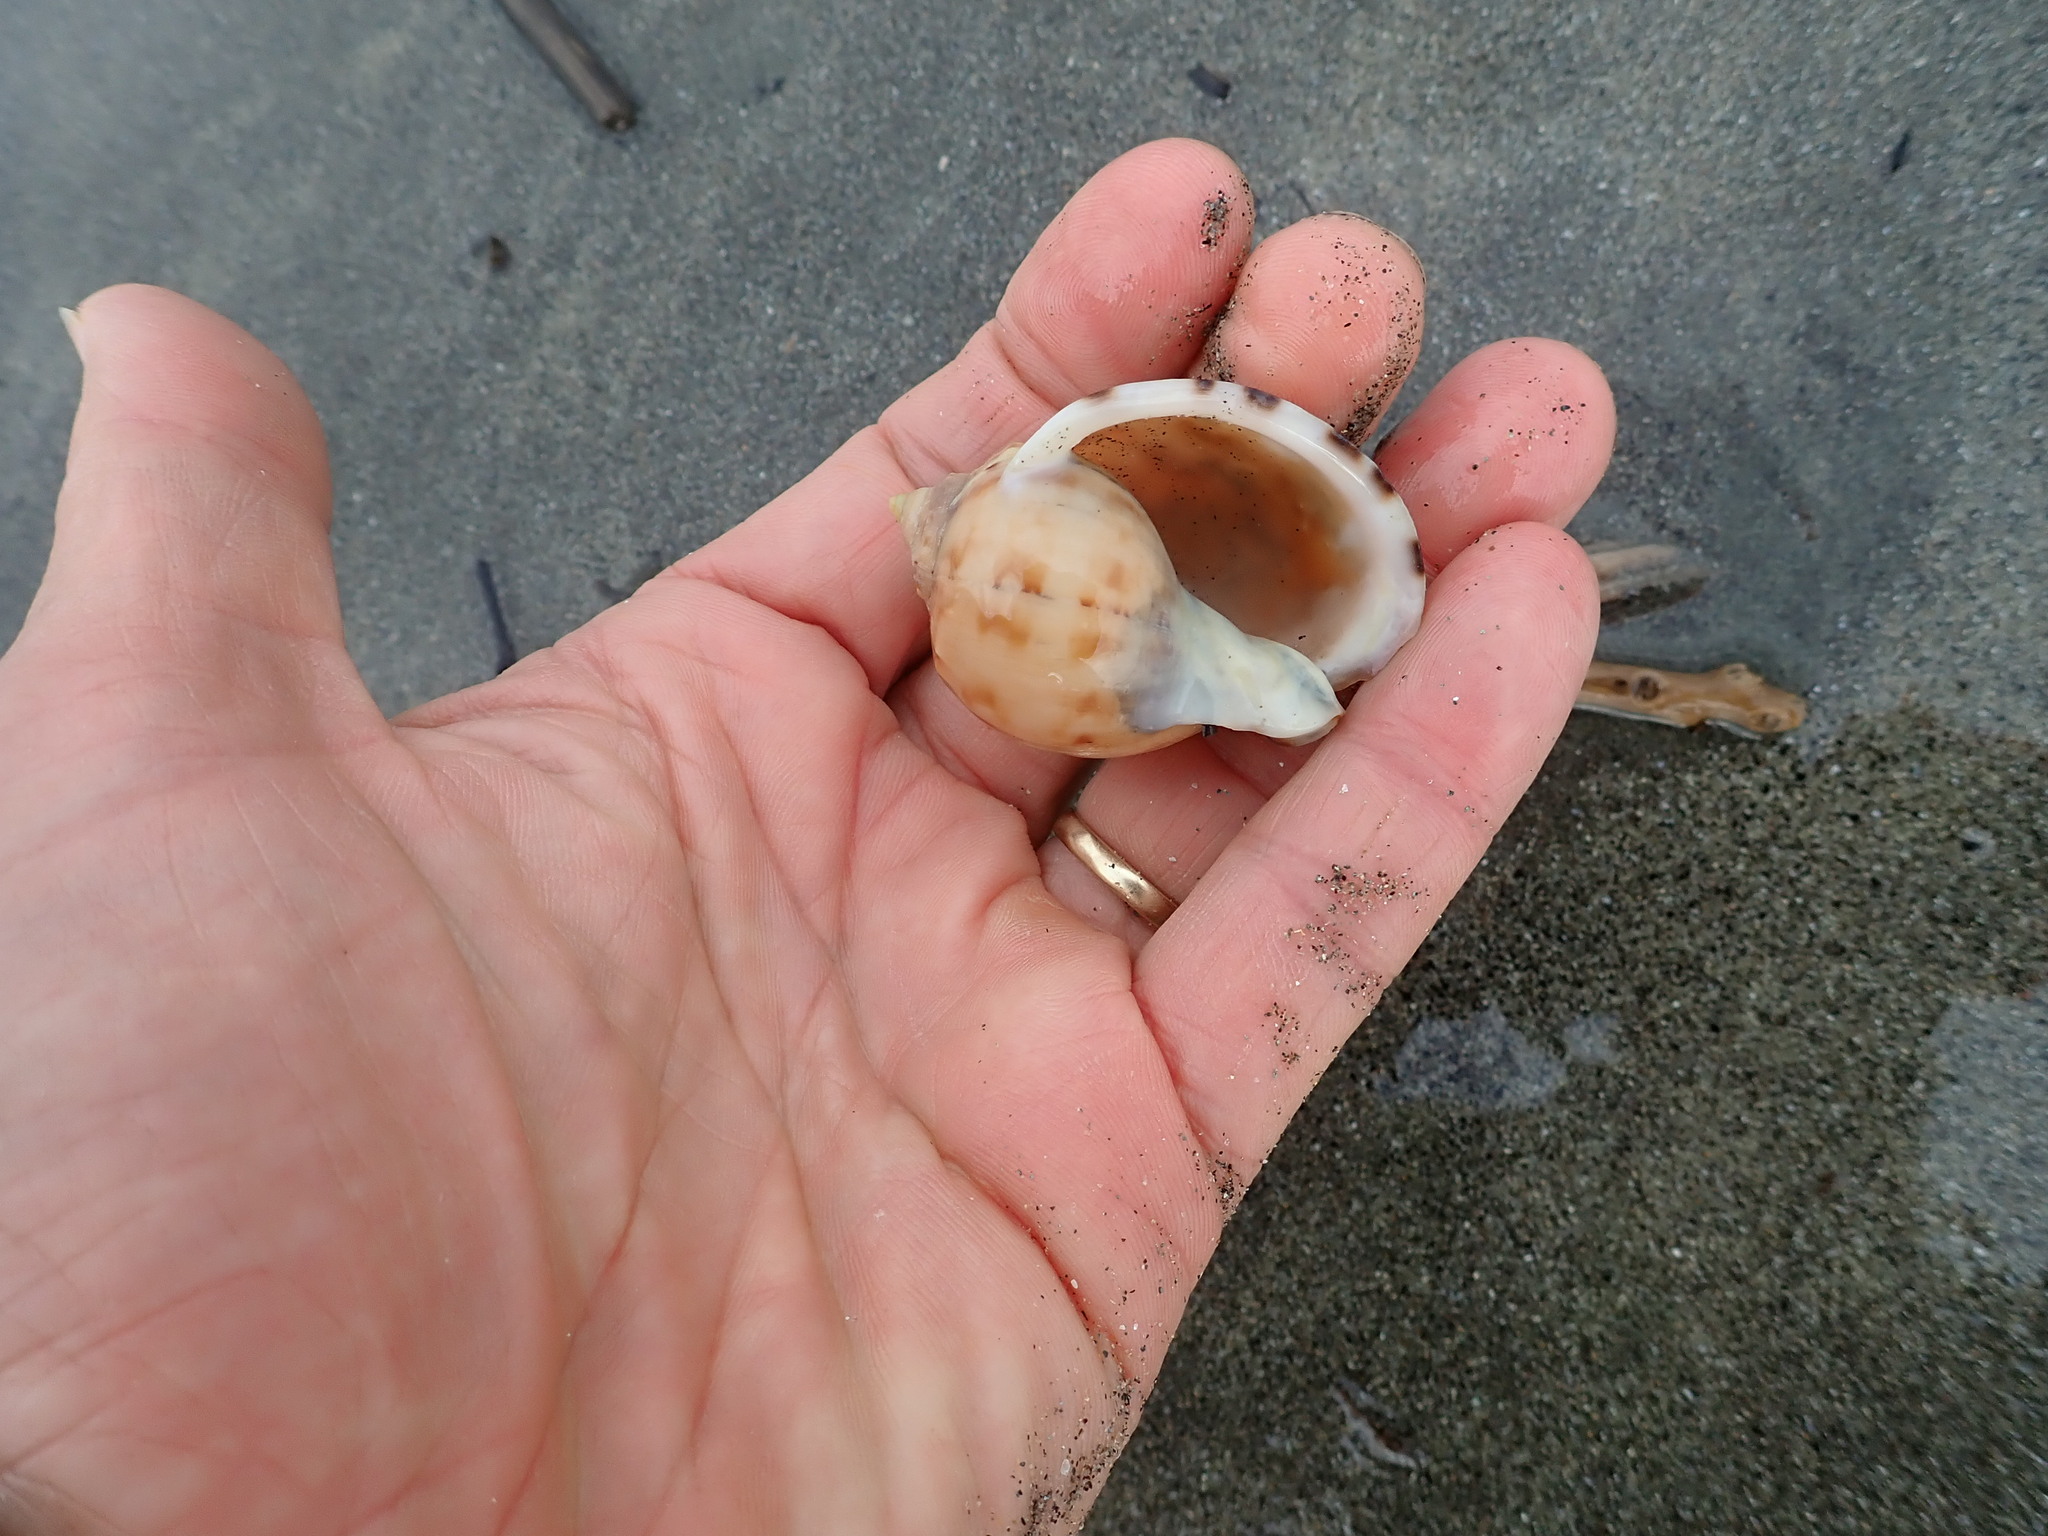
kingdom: Animalia
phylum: Mollusca
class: Gastropoda
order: Littorinimorpha
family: Cassidae
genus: Semicassis
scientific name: Semicassis pyrum
